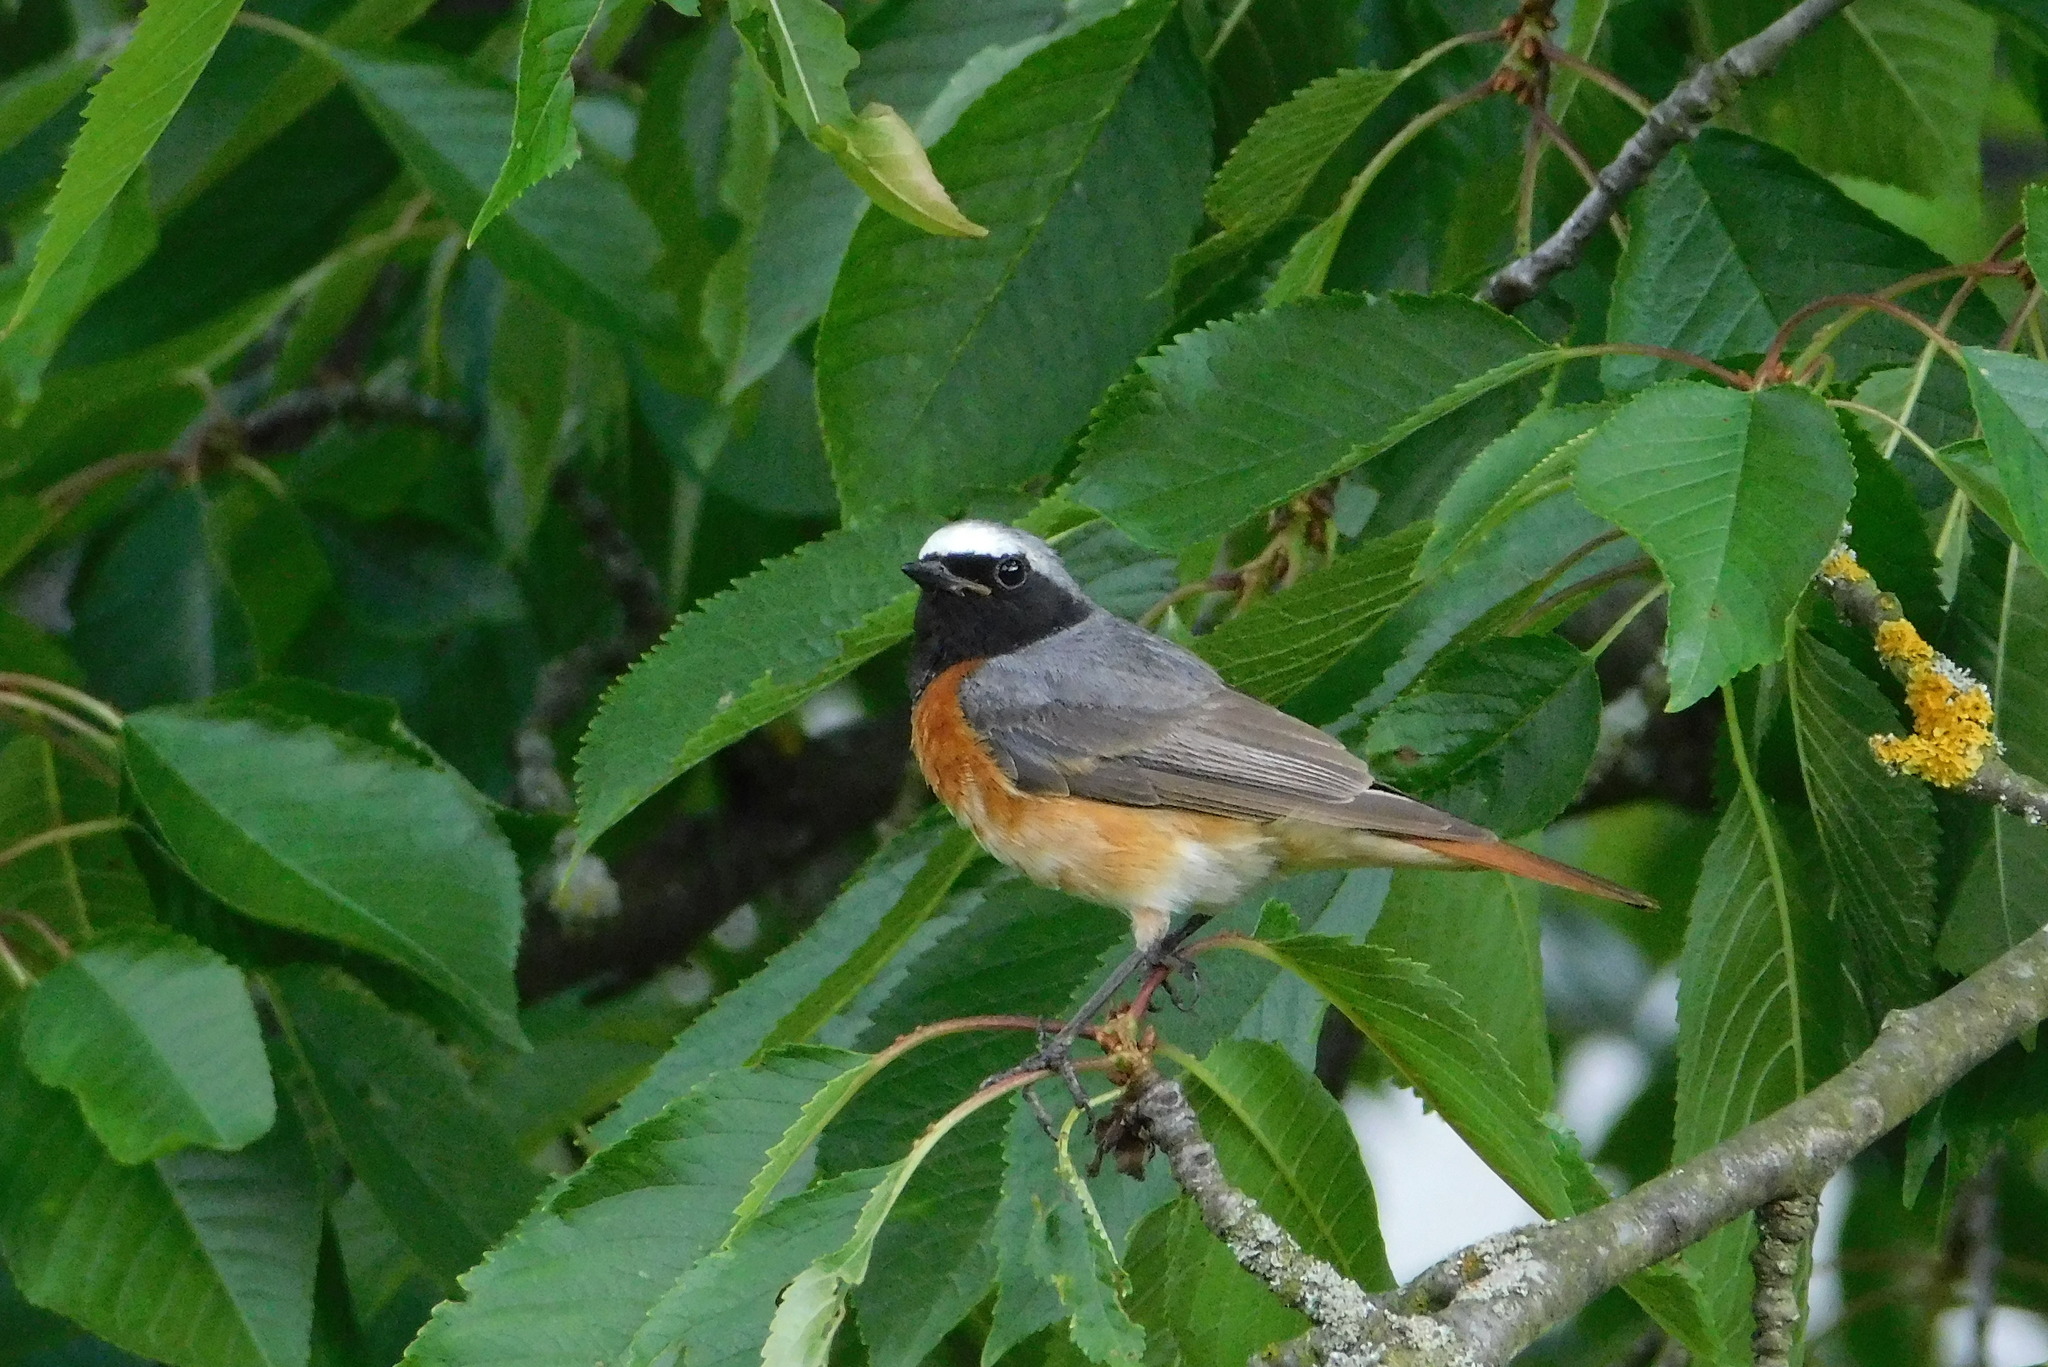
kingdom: Animalia
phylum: Chordata
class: Aves
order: Passeriformes
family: Muscicapidae
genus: Phoenicurus
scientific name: Phoenicurus phoenicurus
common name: Common redstart
